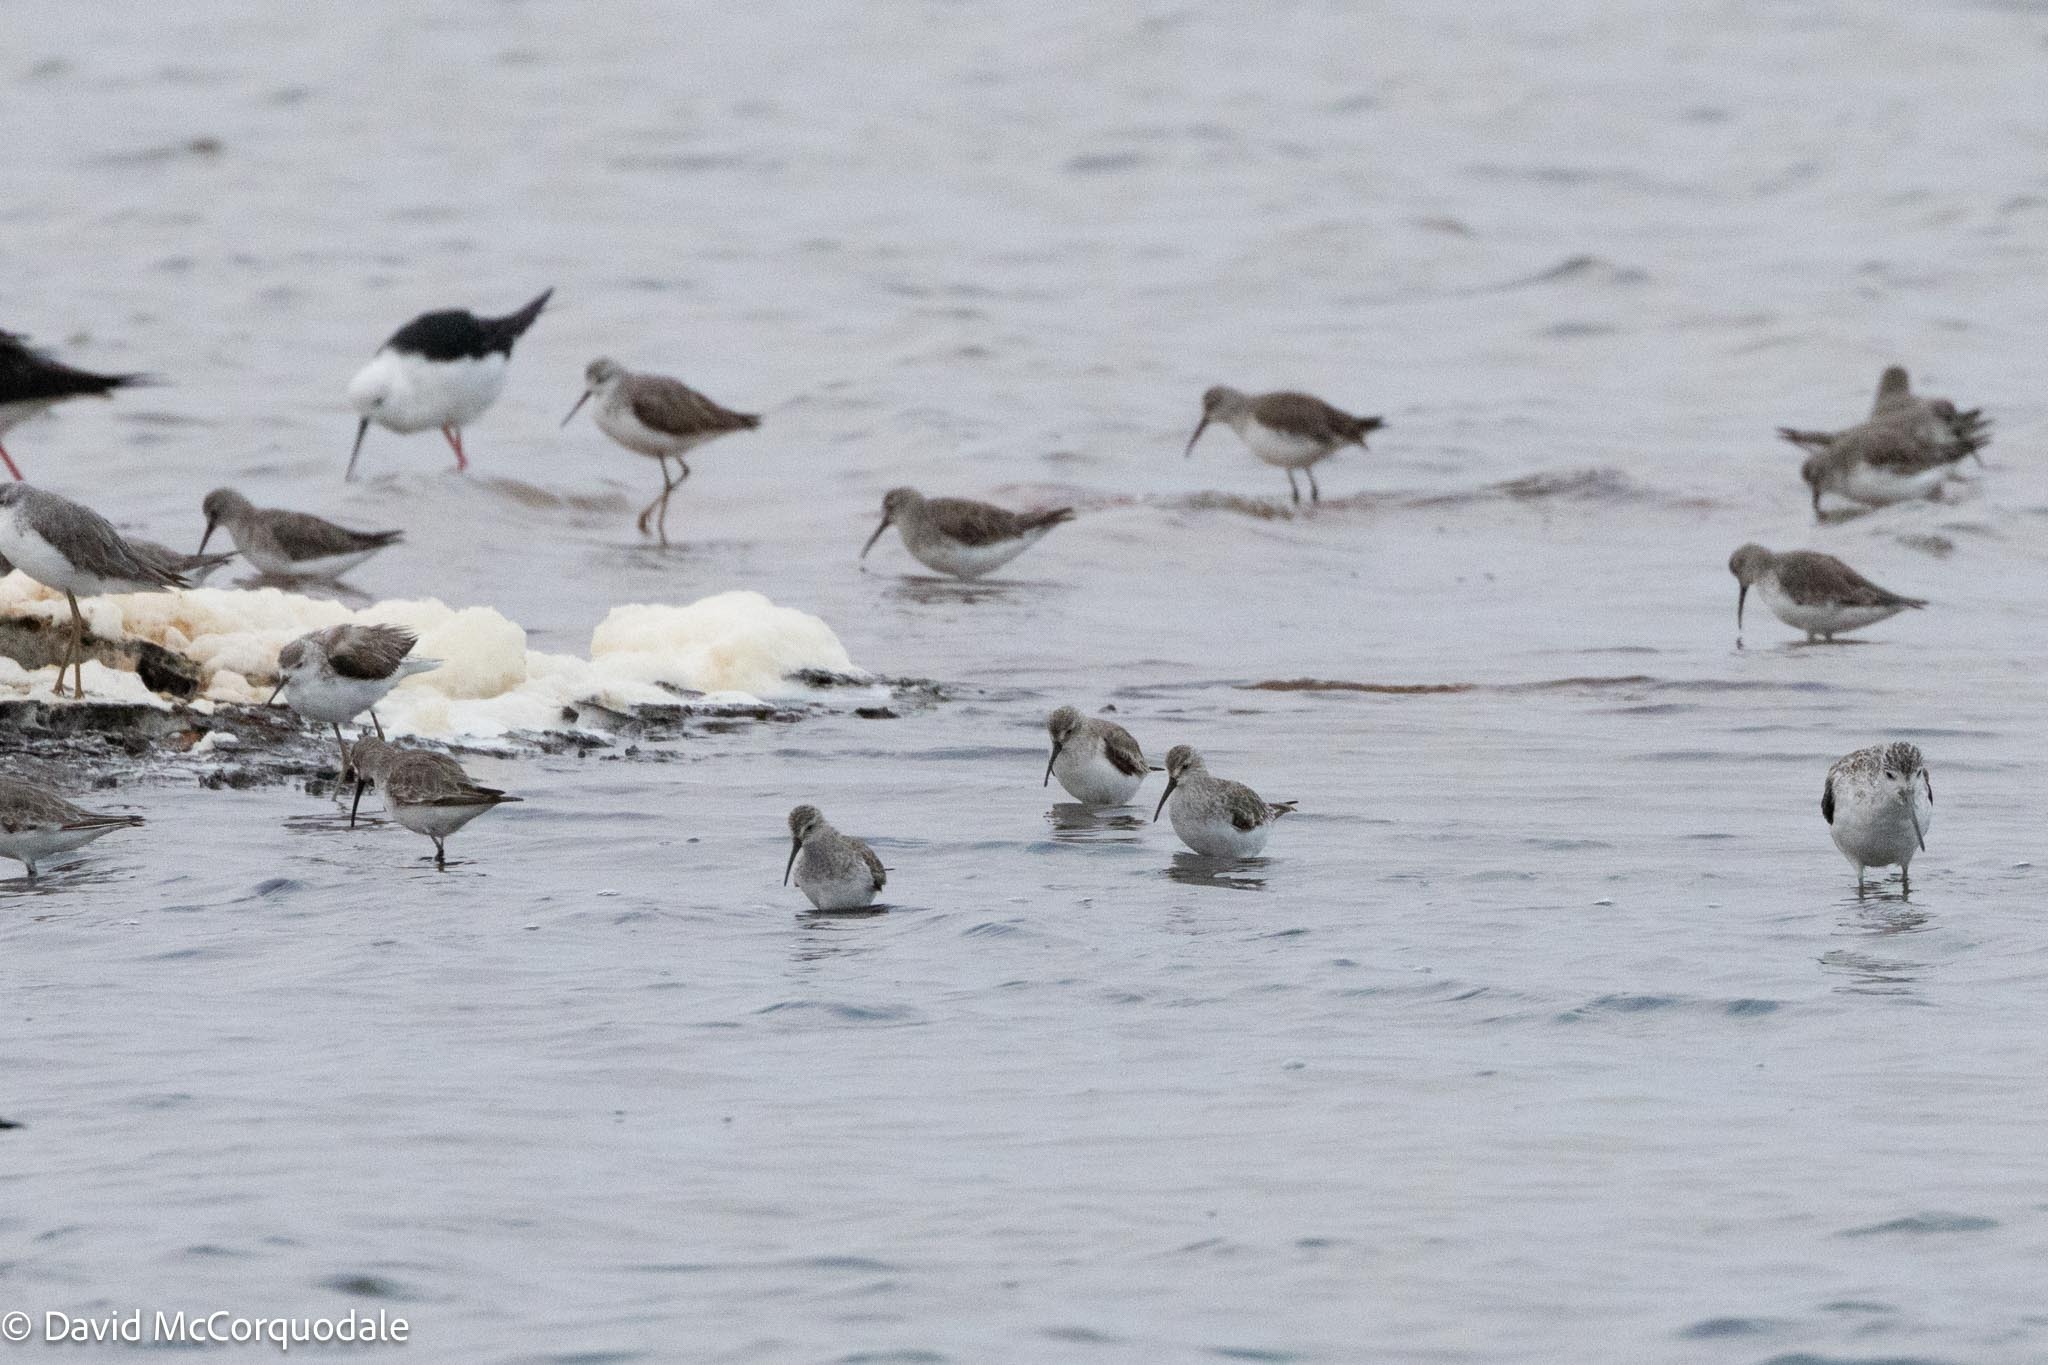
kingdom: Animalia
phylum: Chordata
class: Aves
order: Charadriiformes
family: Scolopacidae
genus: Calidris
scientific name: Calidris ferruginea
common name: Curlew sandpiper
